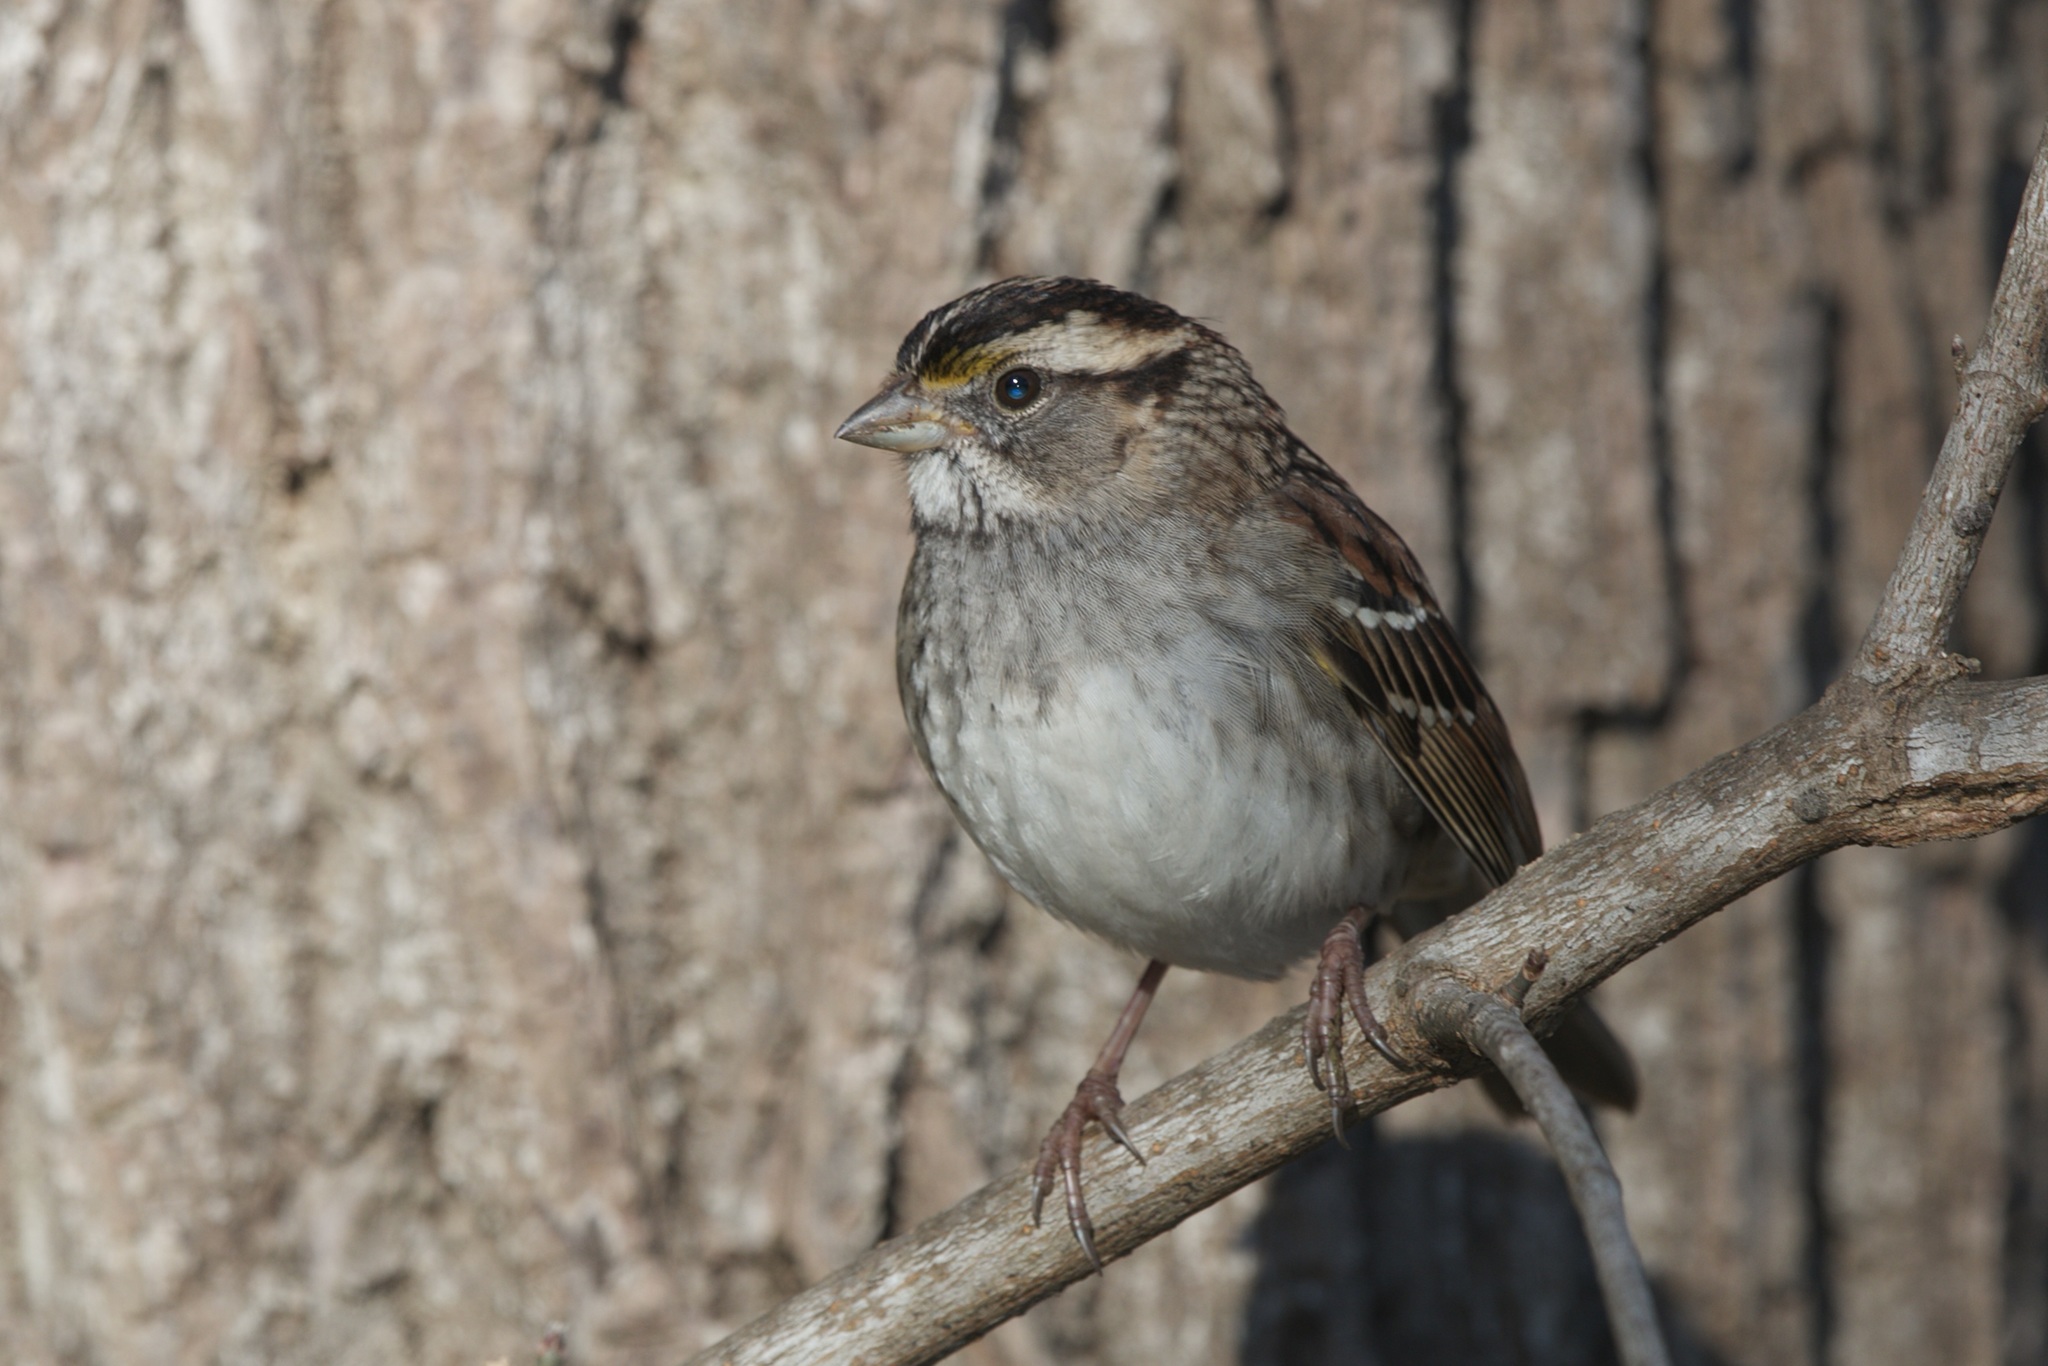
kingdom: Animalia
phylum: Chordata
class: Aves
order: Passeriformes
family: Passerellidae
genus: Zonotrichia
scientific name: Zonotrichia albicollis
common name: White-throated sparrow
